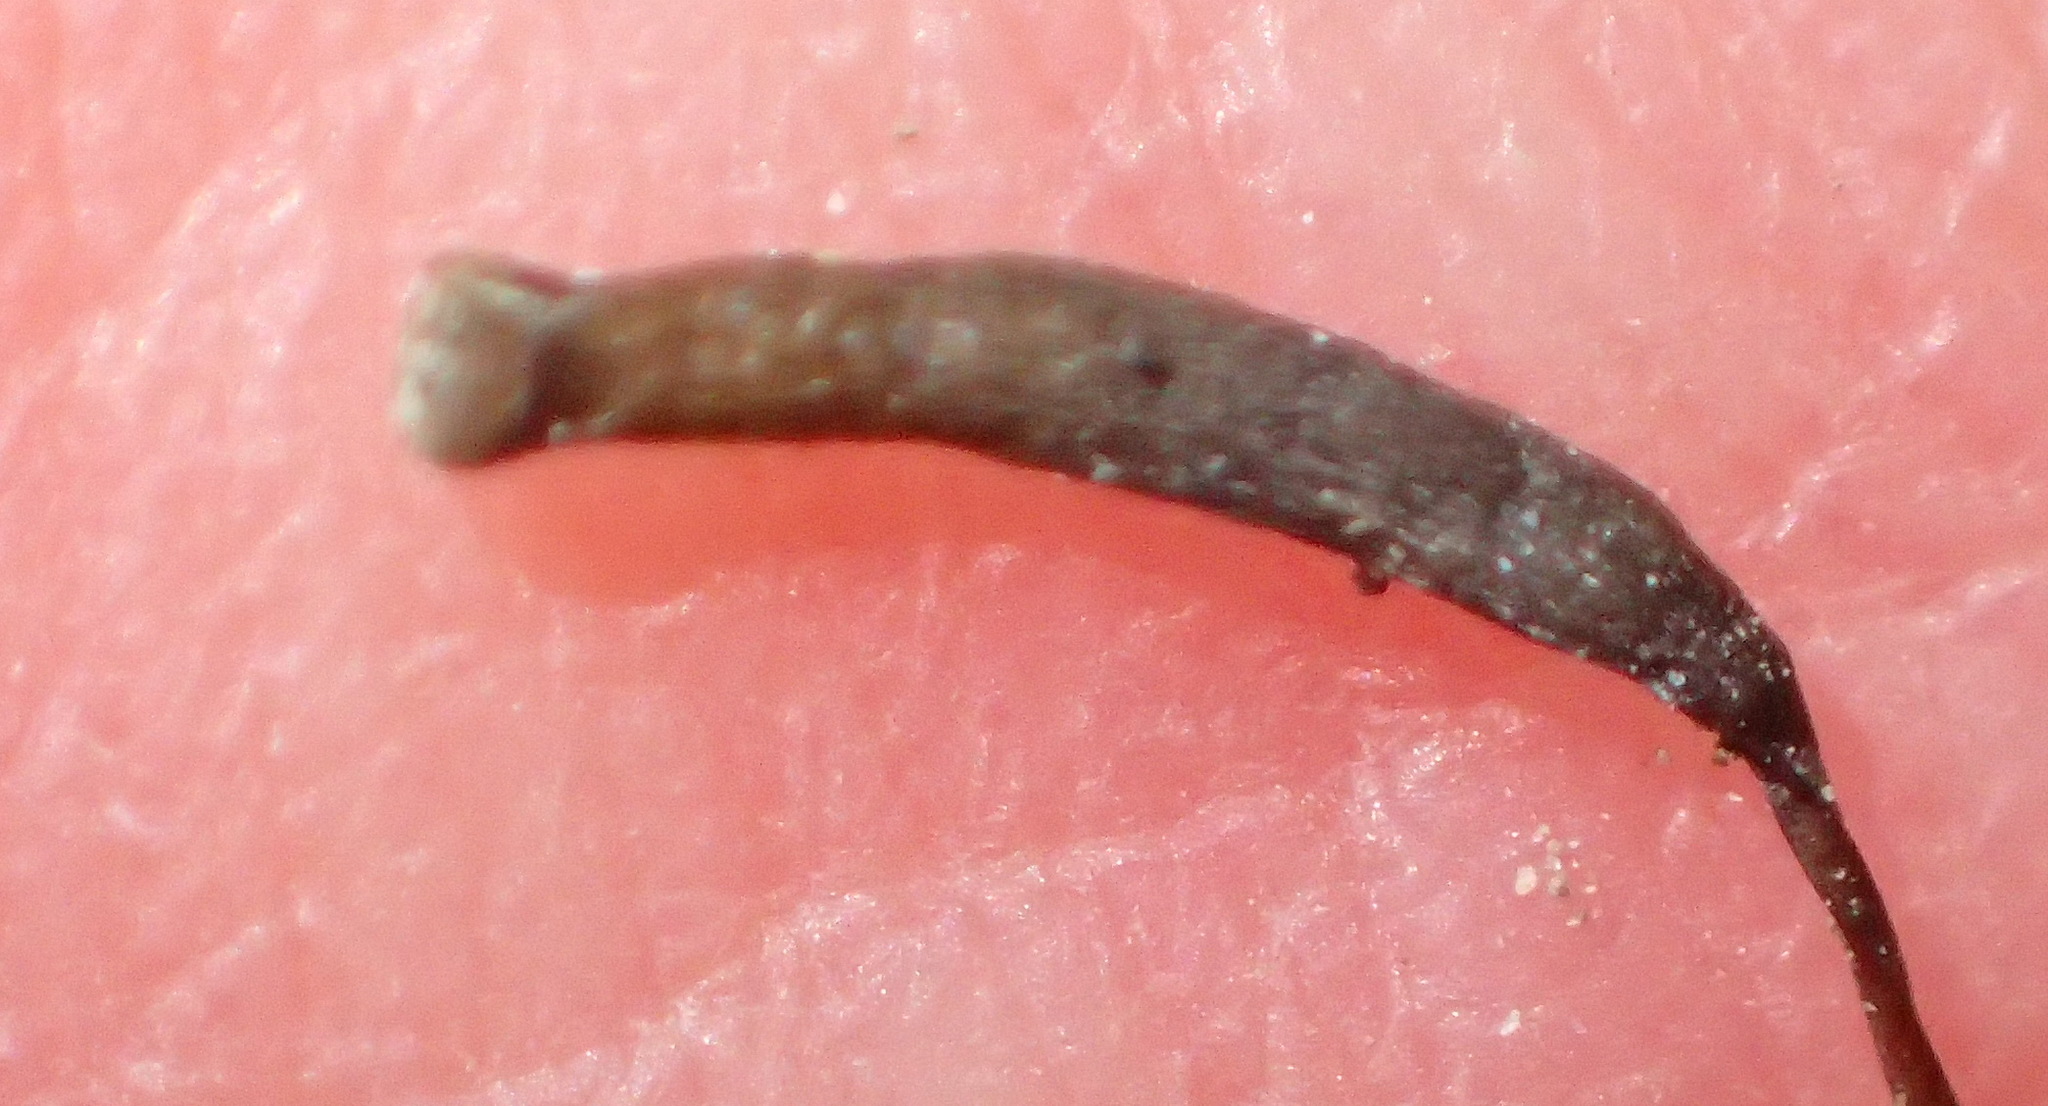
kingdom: Plantae
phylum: Bryophyta
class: Polytrichopsida
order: Polytrichales
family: Polytrichaceae
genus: Atrichum
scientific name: Atrichum androgynum
